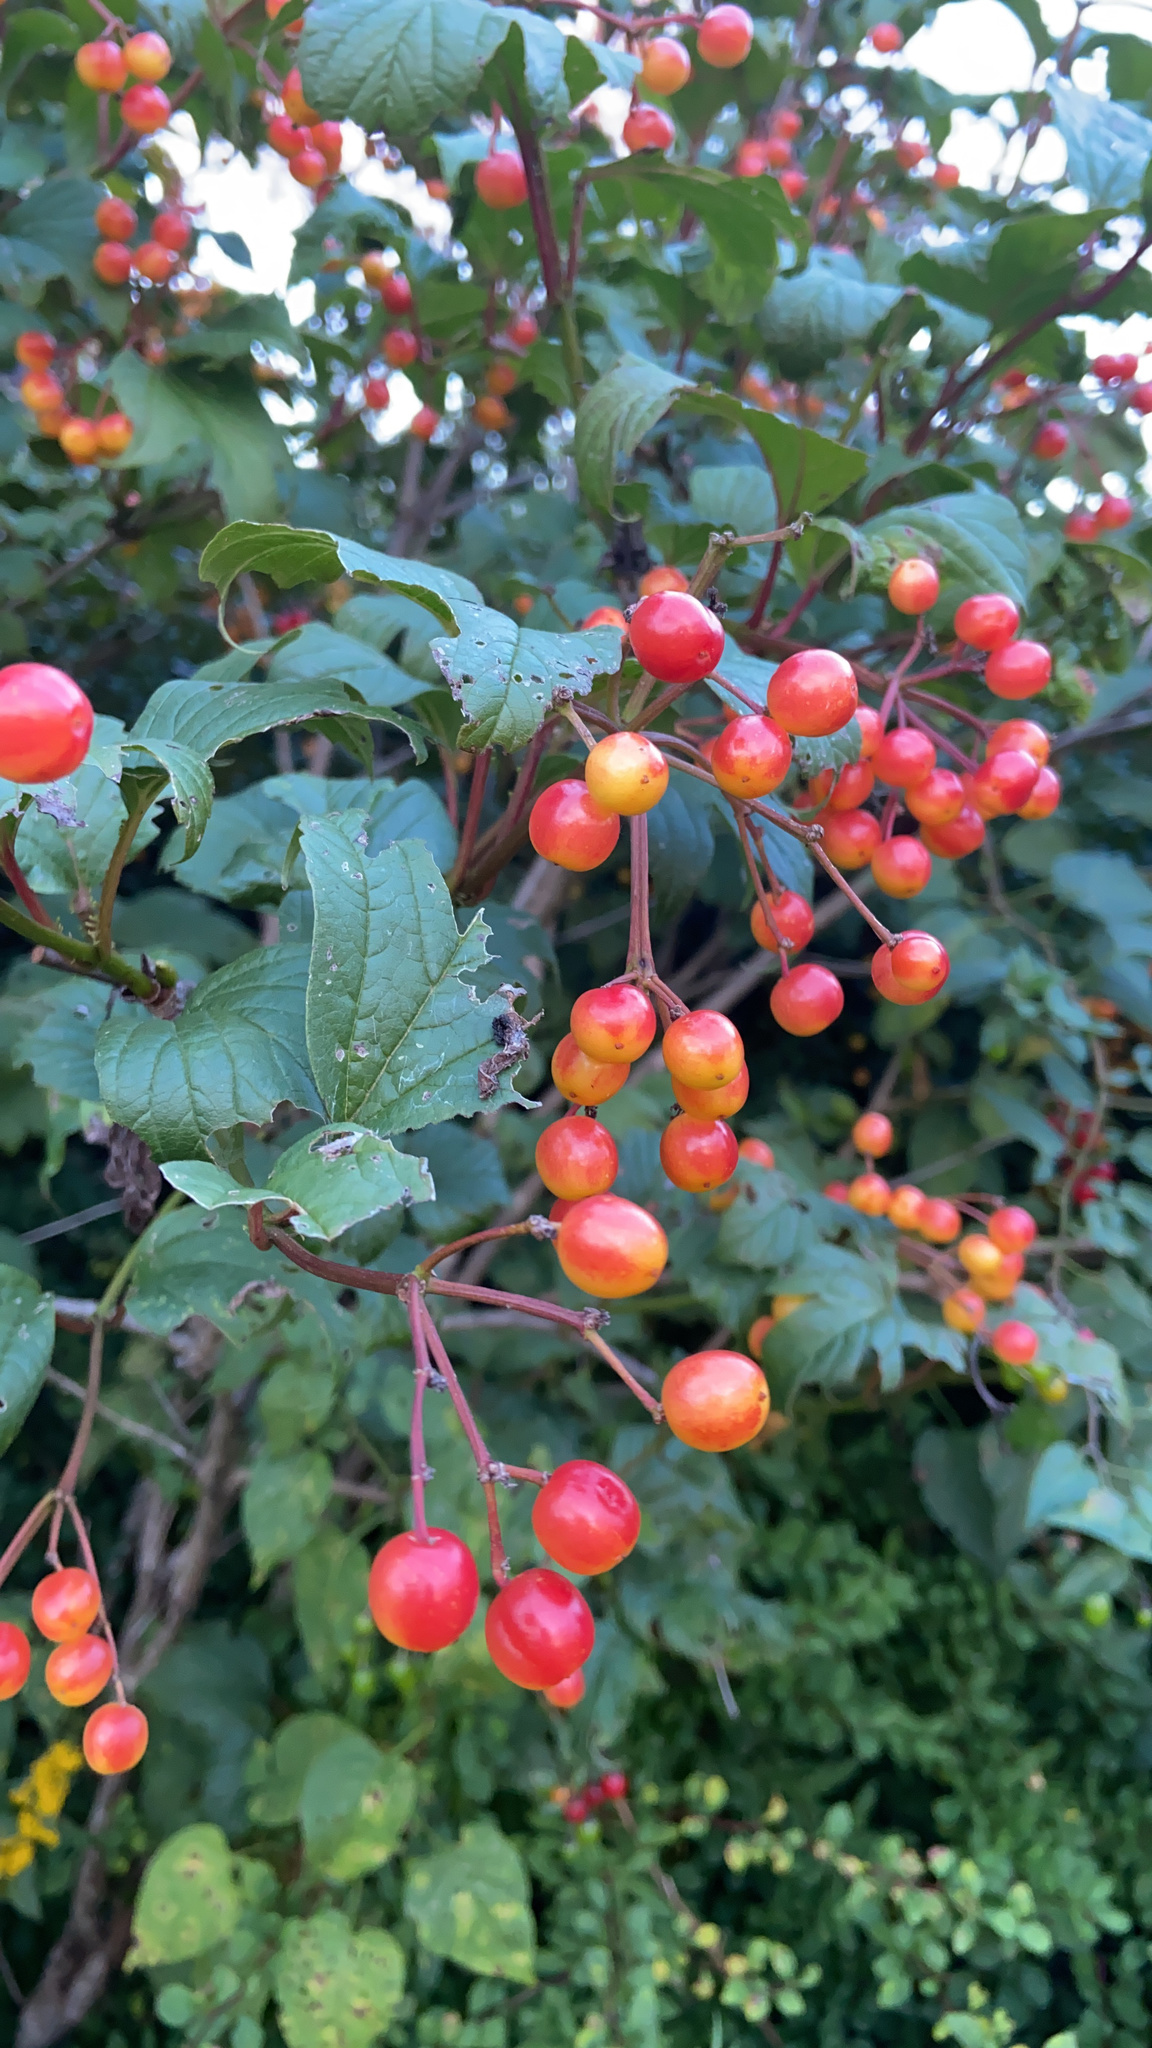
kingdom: Plantae
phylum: Tracheophyta
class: Magnoliopsida
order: Dipsacales
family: Viburnaceae
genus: Viburnum
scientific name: Viburnum opulus
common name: Guelder-rose
